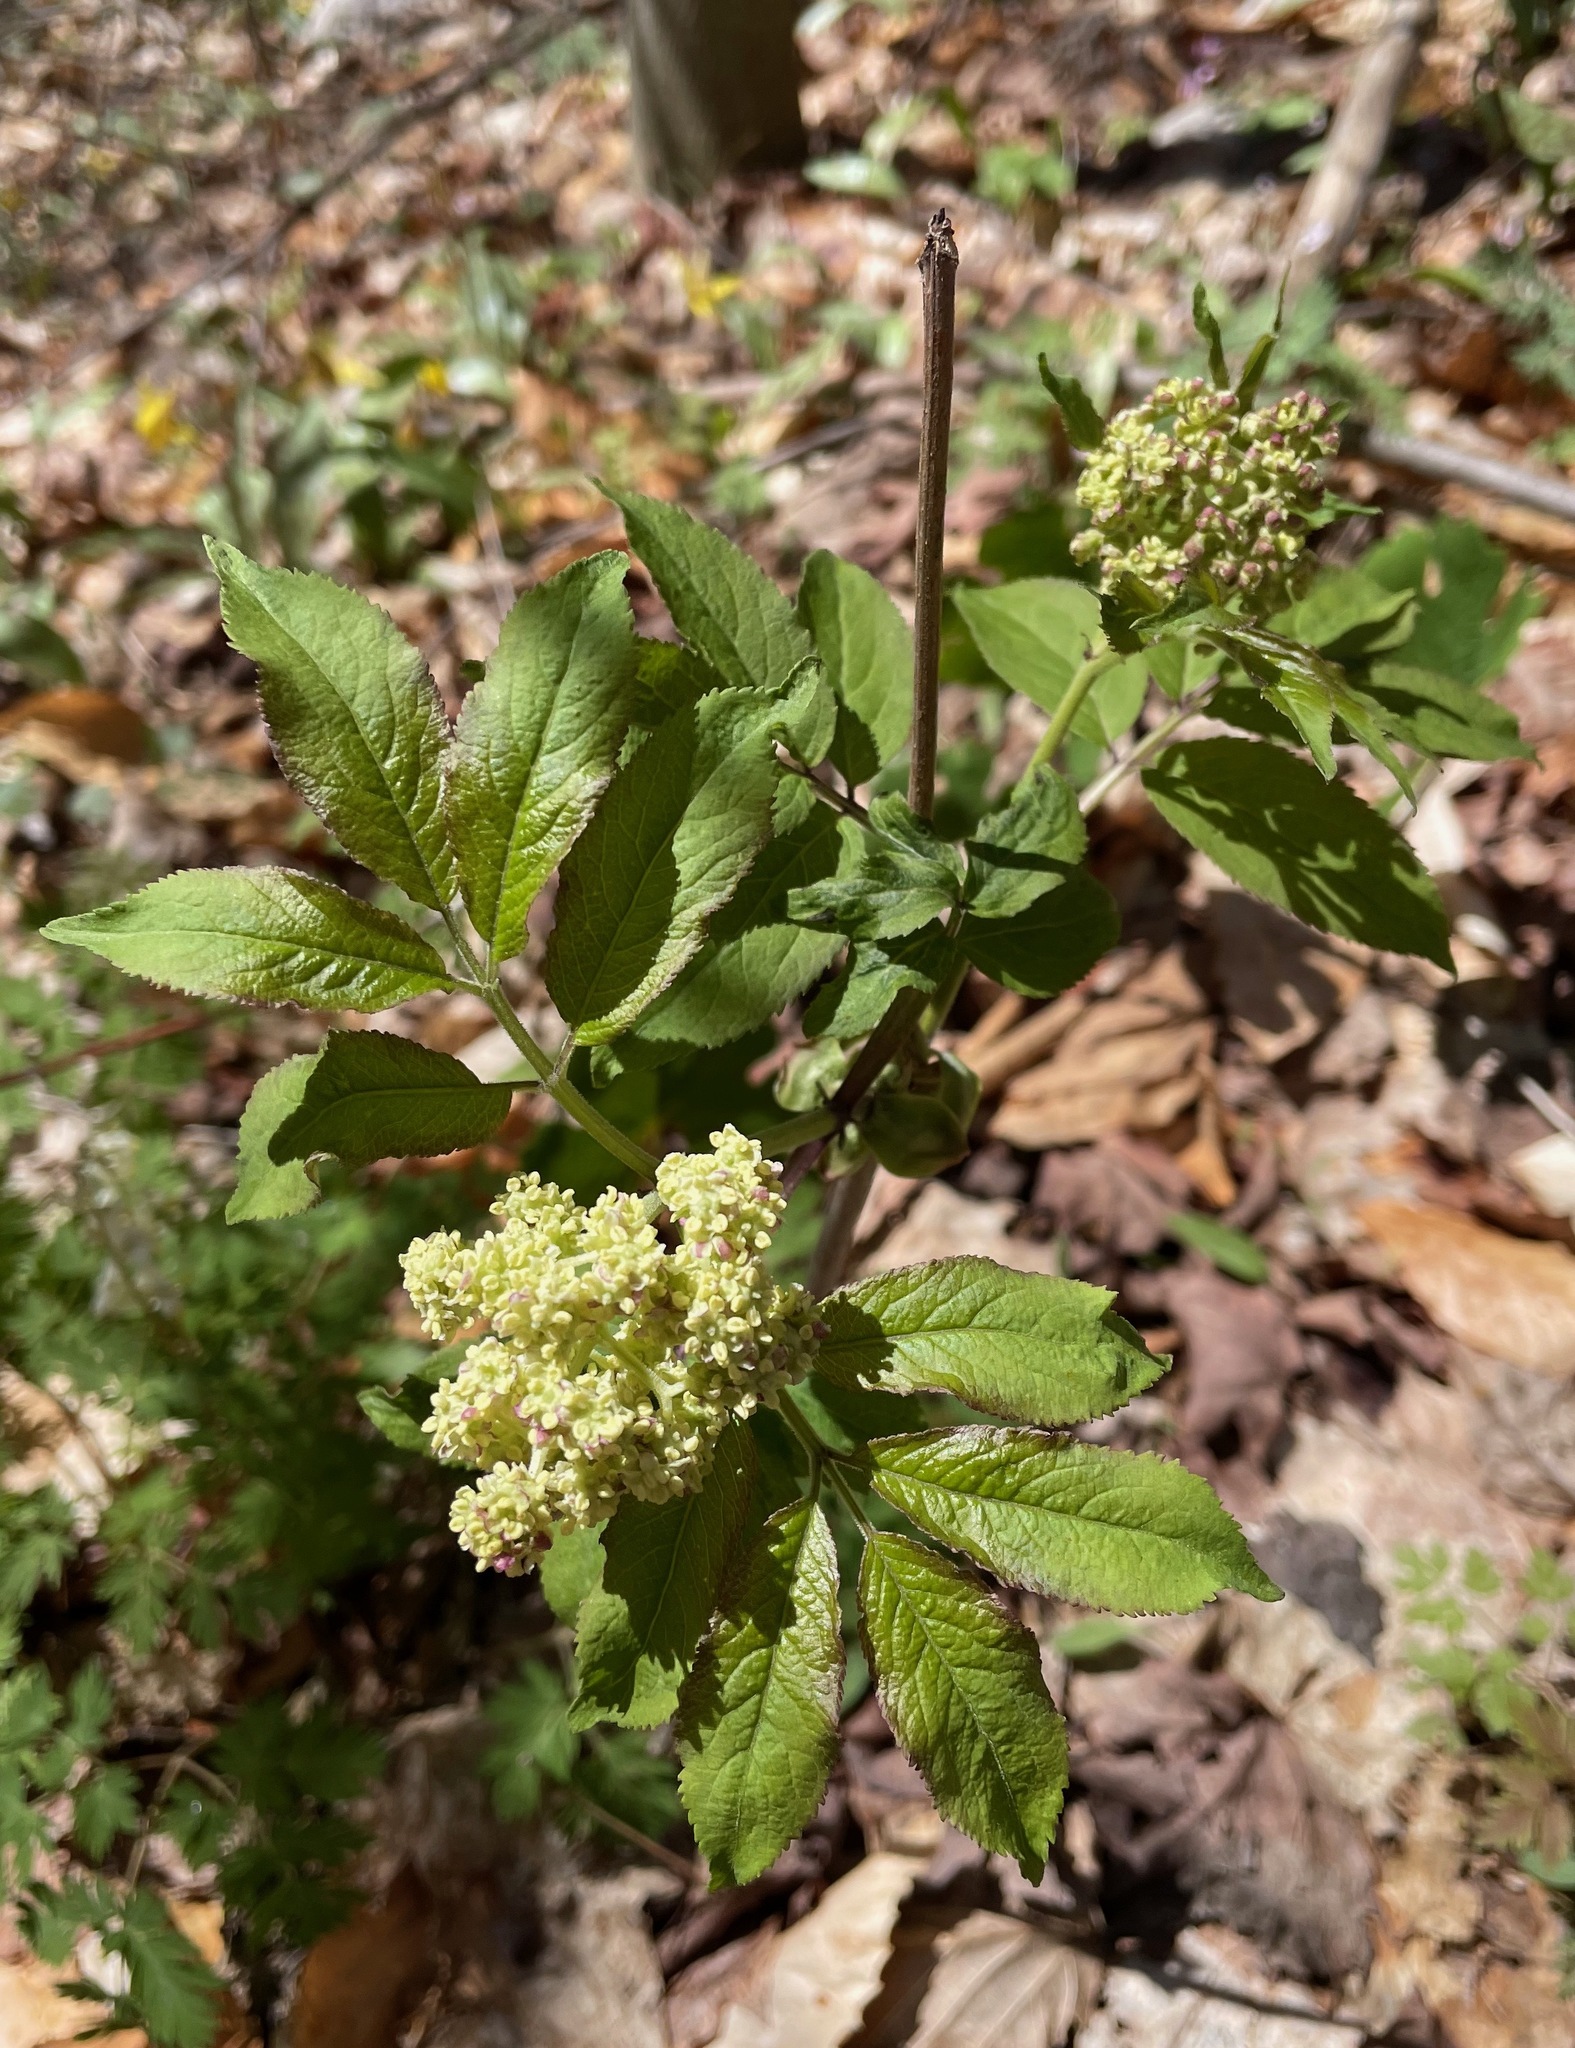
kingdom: Plantae
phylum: Tracheophyta
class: Magnoliopsida
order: Dipsacales
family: Viburnaceae
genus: Sambucus
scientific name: Sambucus racemosa
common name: Red-berried elder
